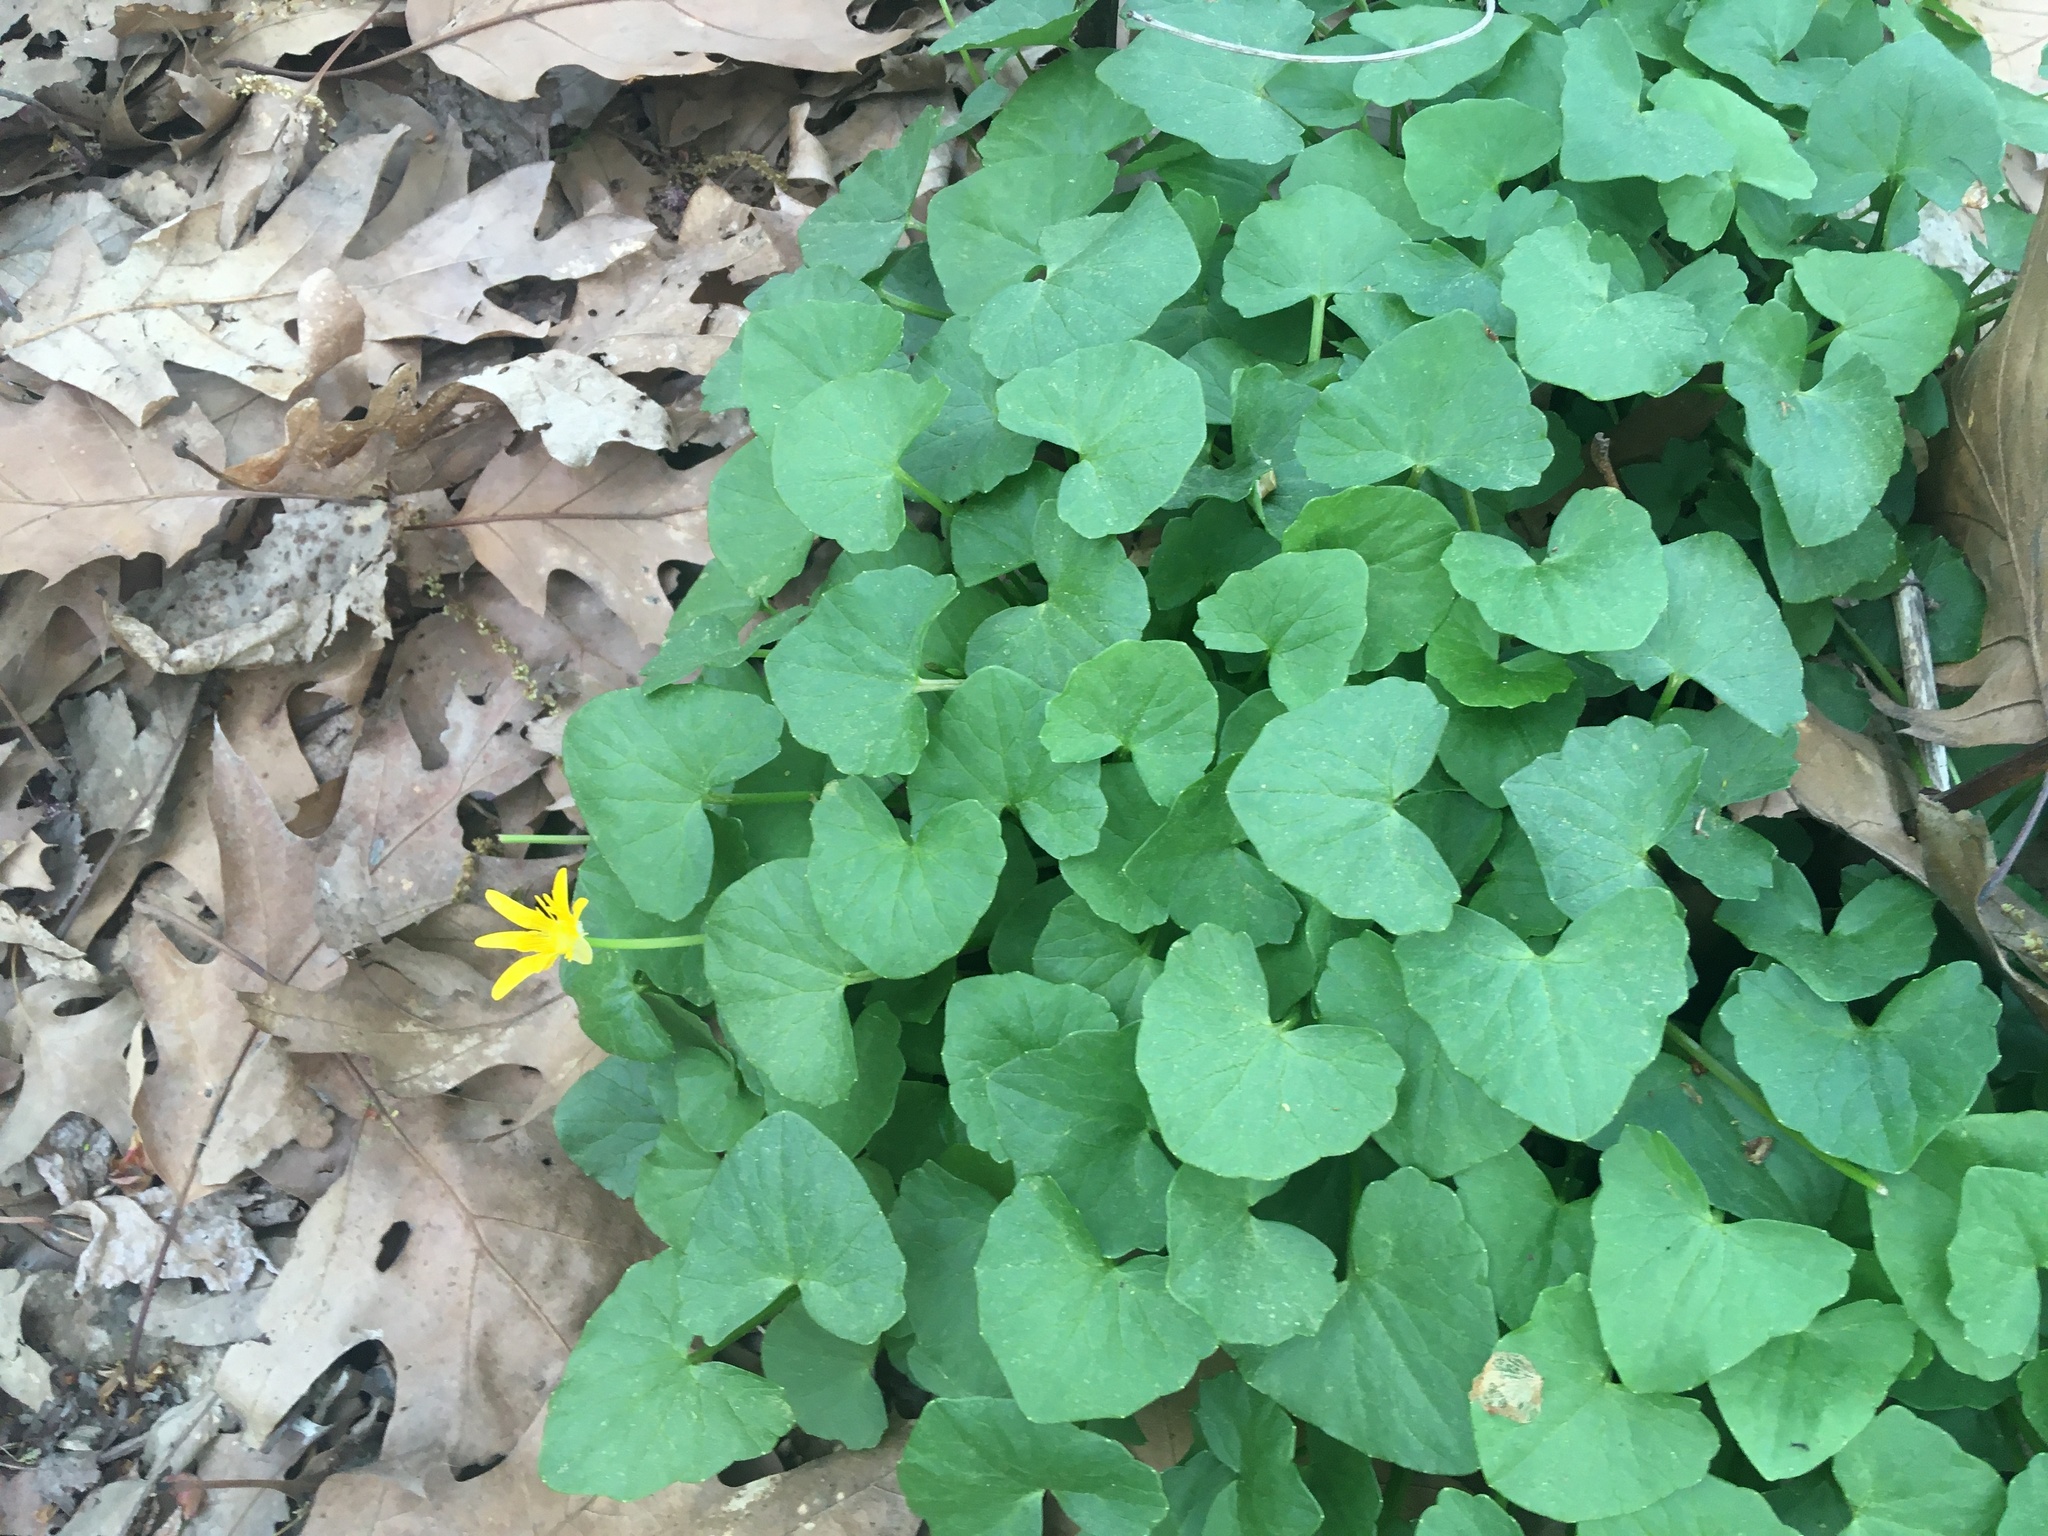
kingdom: Plantae
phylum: Tracheophyta
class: Magnoliopsida
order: Ranunculales
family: Ranunculaceae
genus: Ficaria
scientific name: Ficaria verna
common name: Lesser celandine
